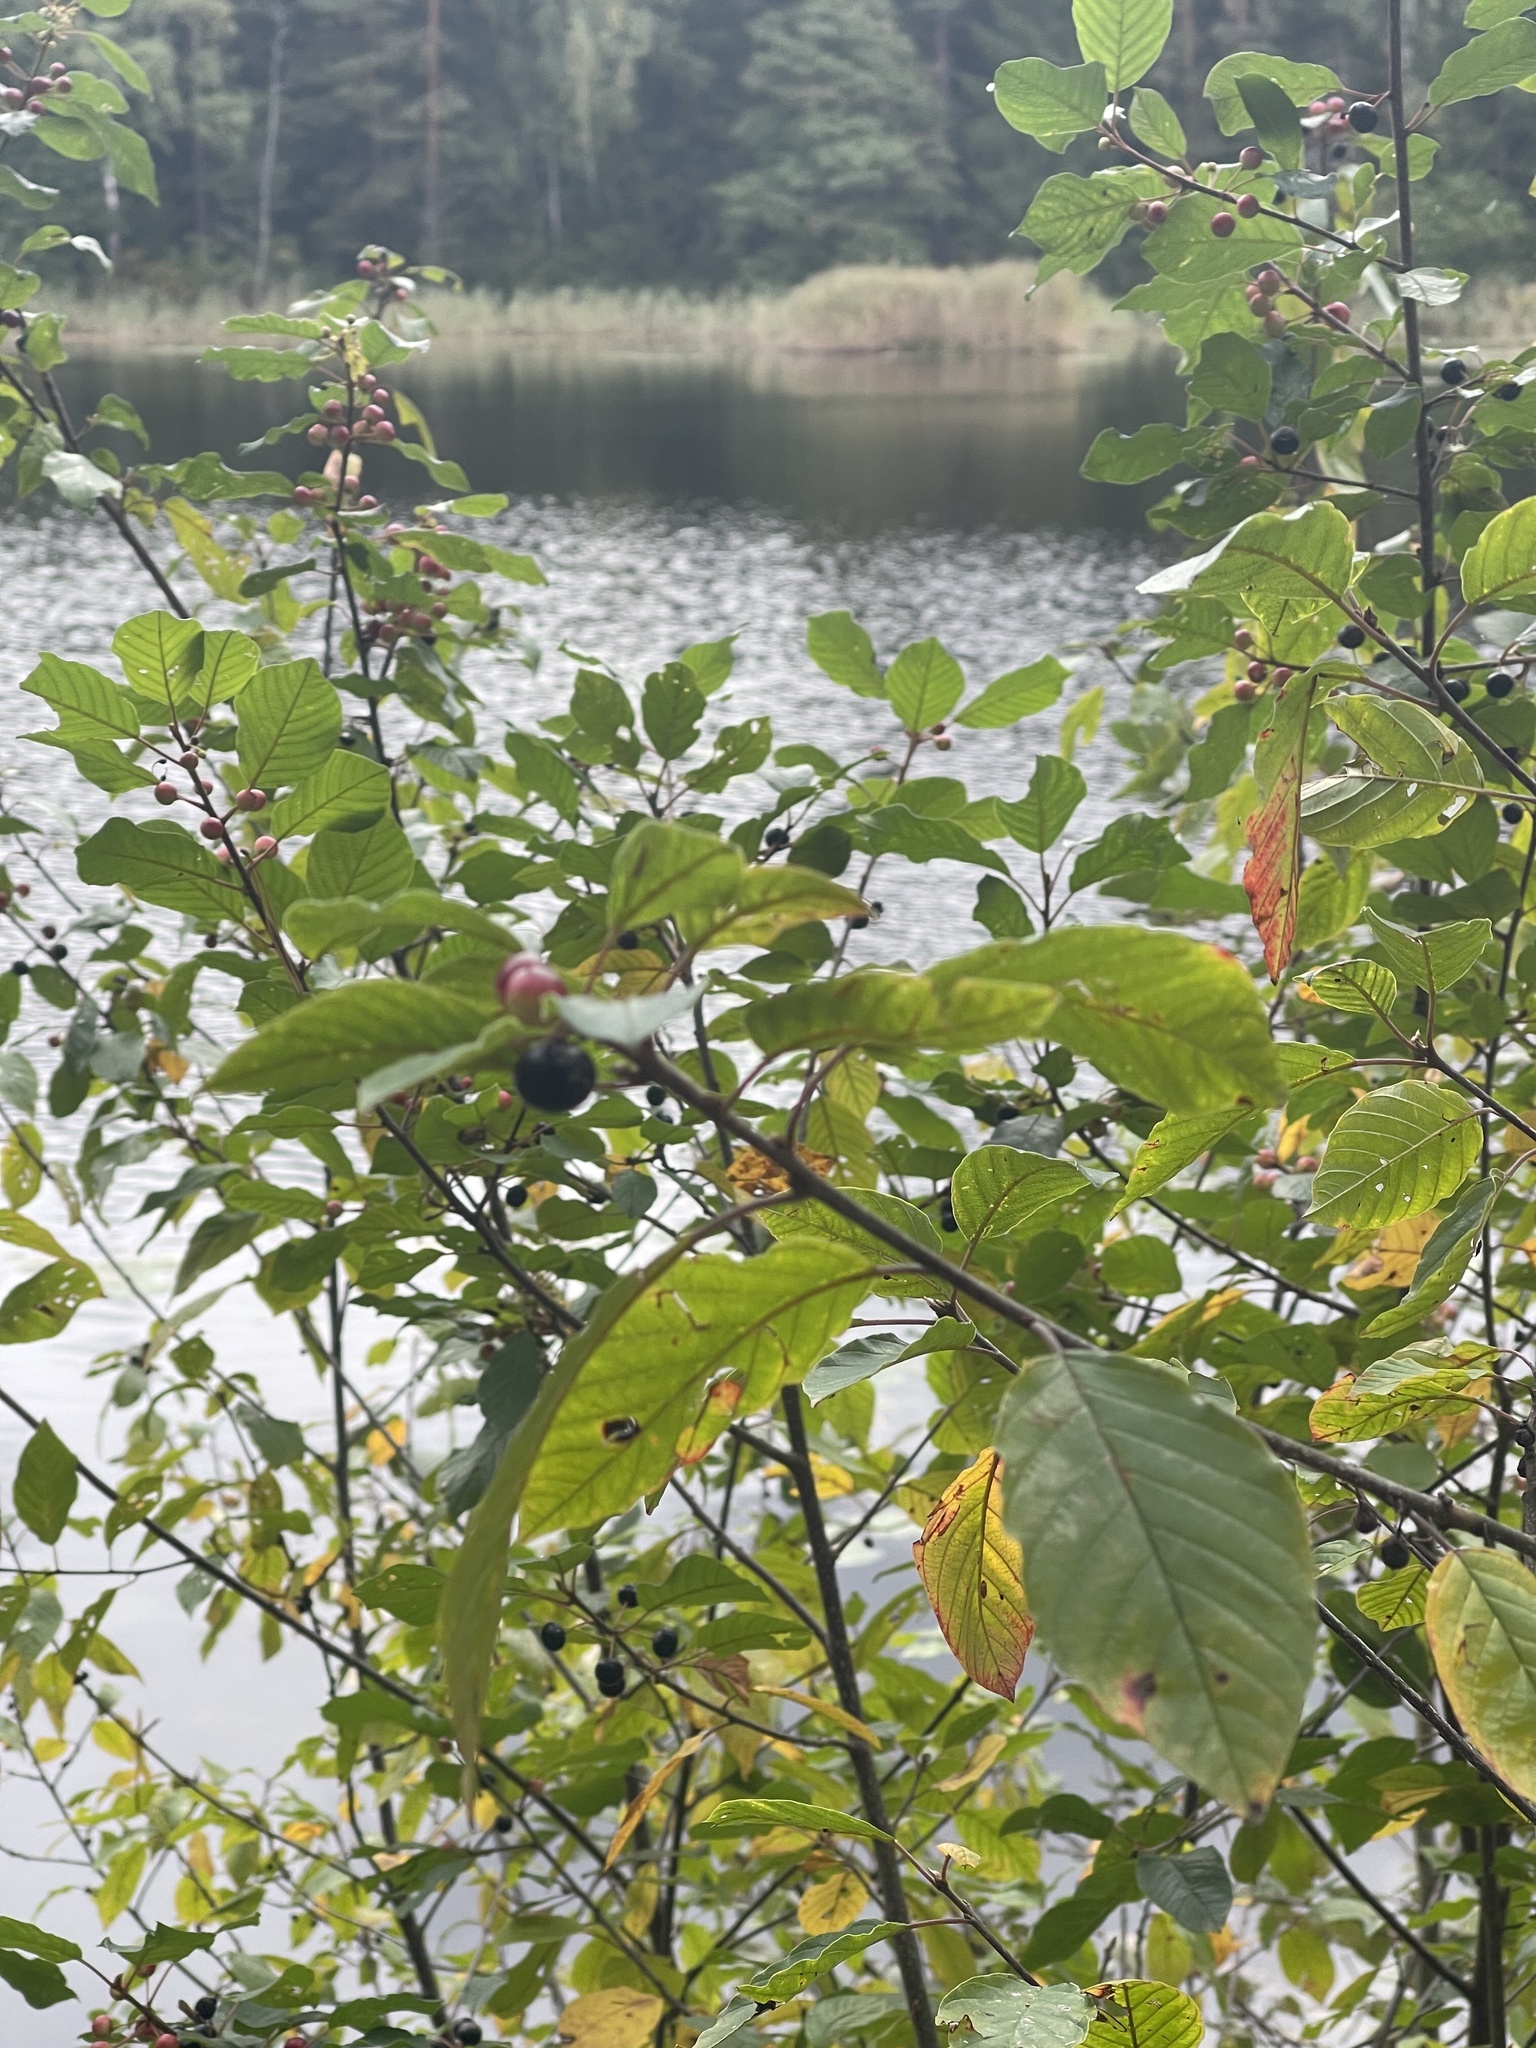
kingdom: Plantae
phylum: Tracheophyta
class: Magnoliopsida
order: Rosales
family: Rhamnaceae
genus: Frangula
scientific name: Frangula alnus
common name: Alder buckthorn
